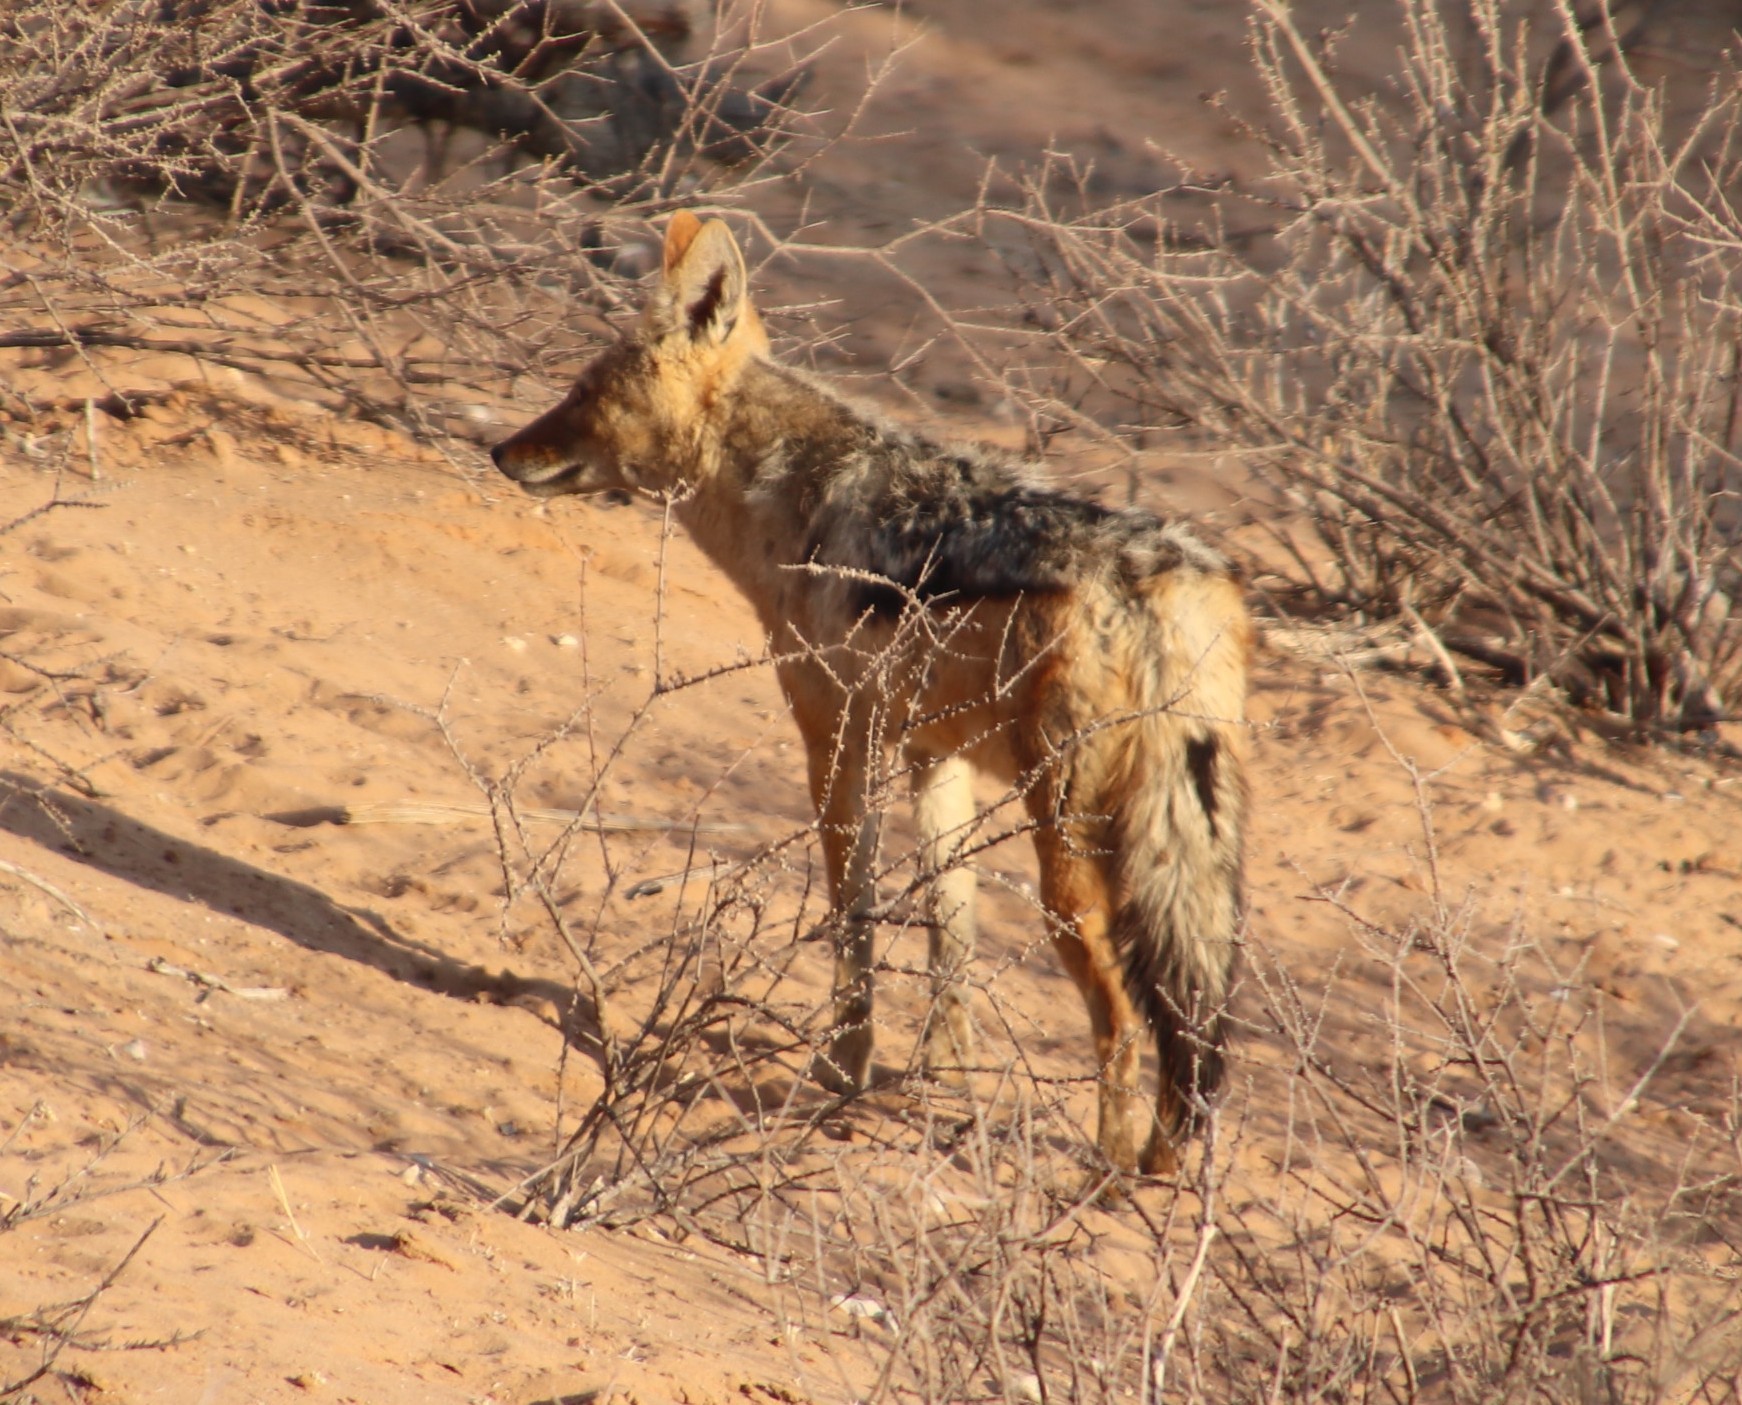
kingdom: Animalia
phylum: Chordata
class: Mammalia
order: Carnivora
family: Canidae
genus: Lupulella
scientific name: Lupulella
